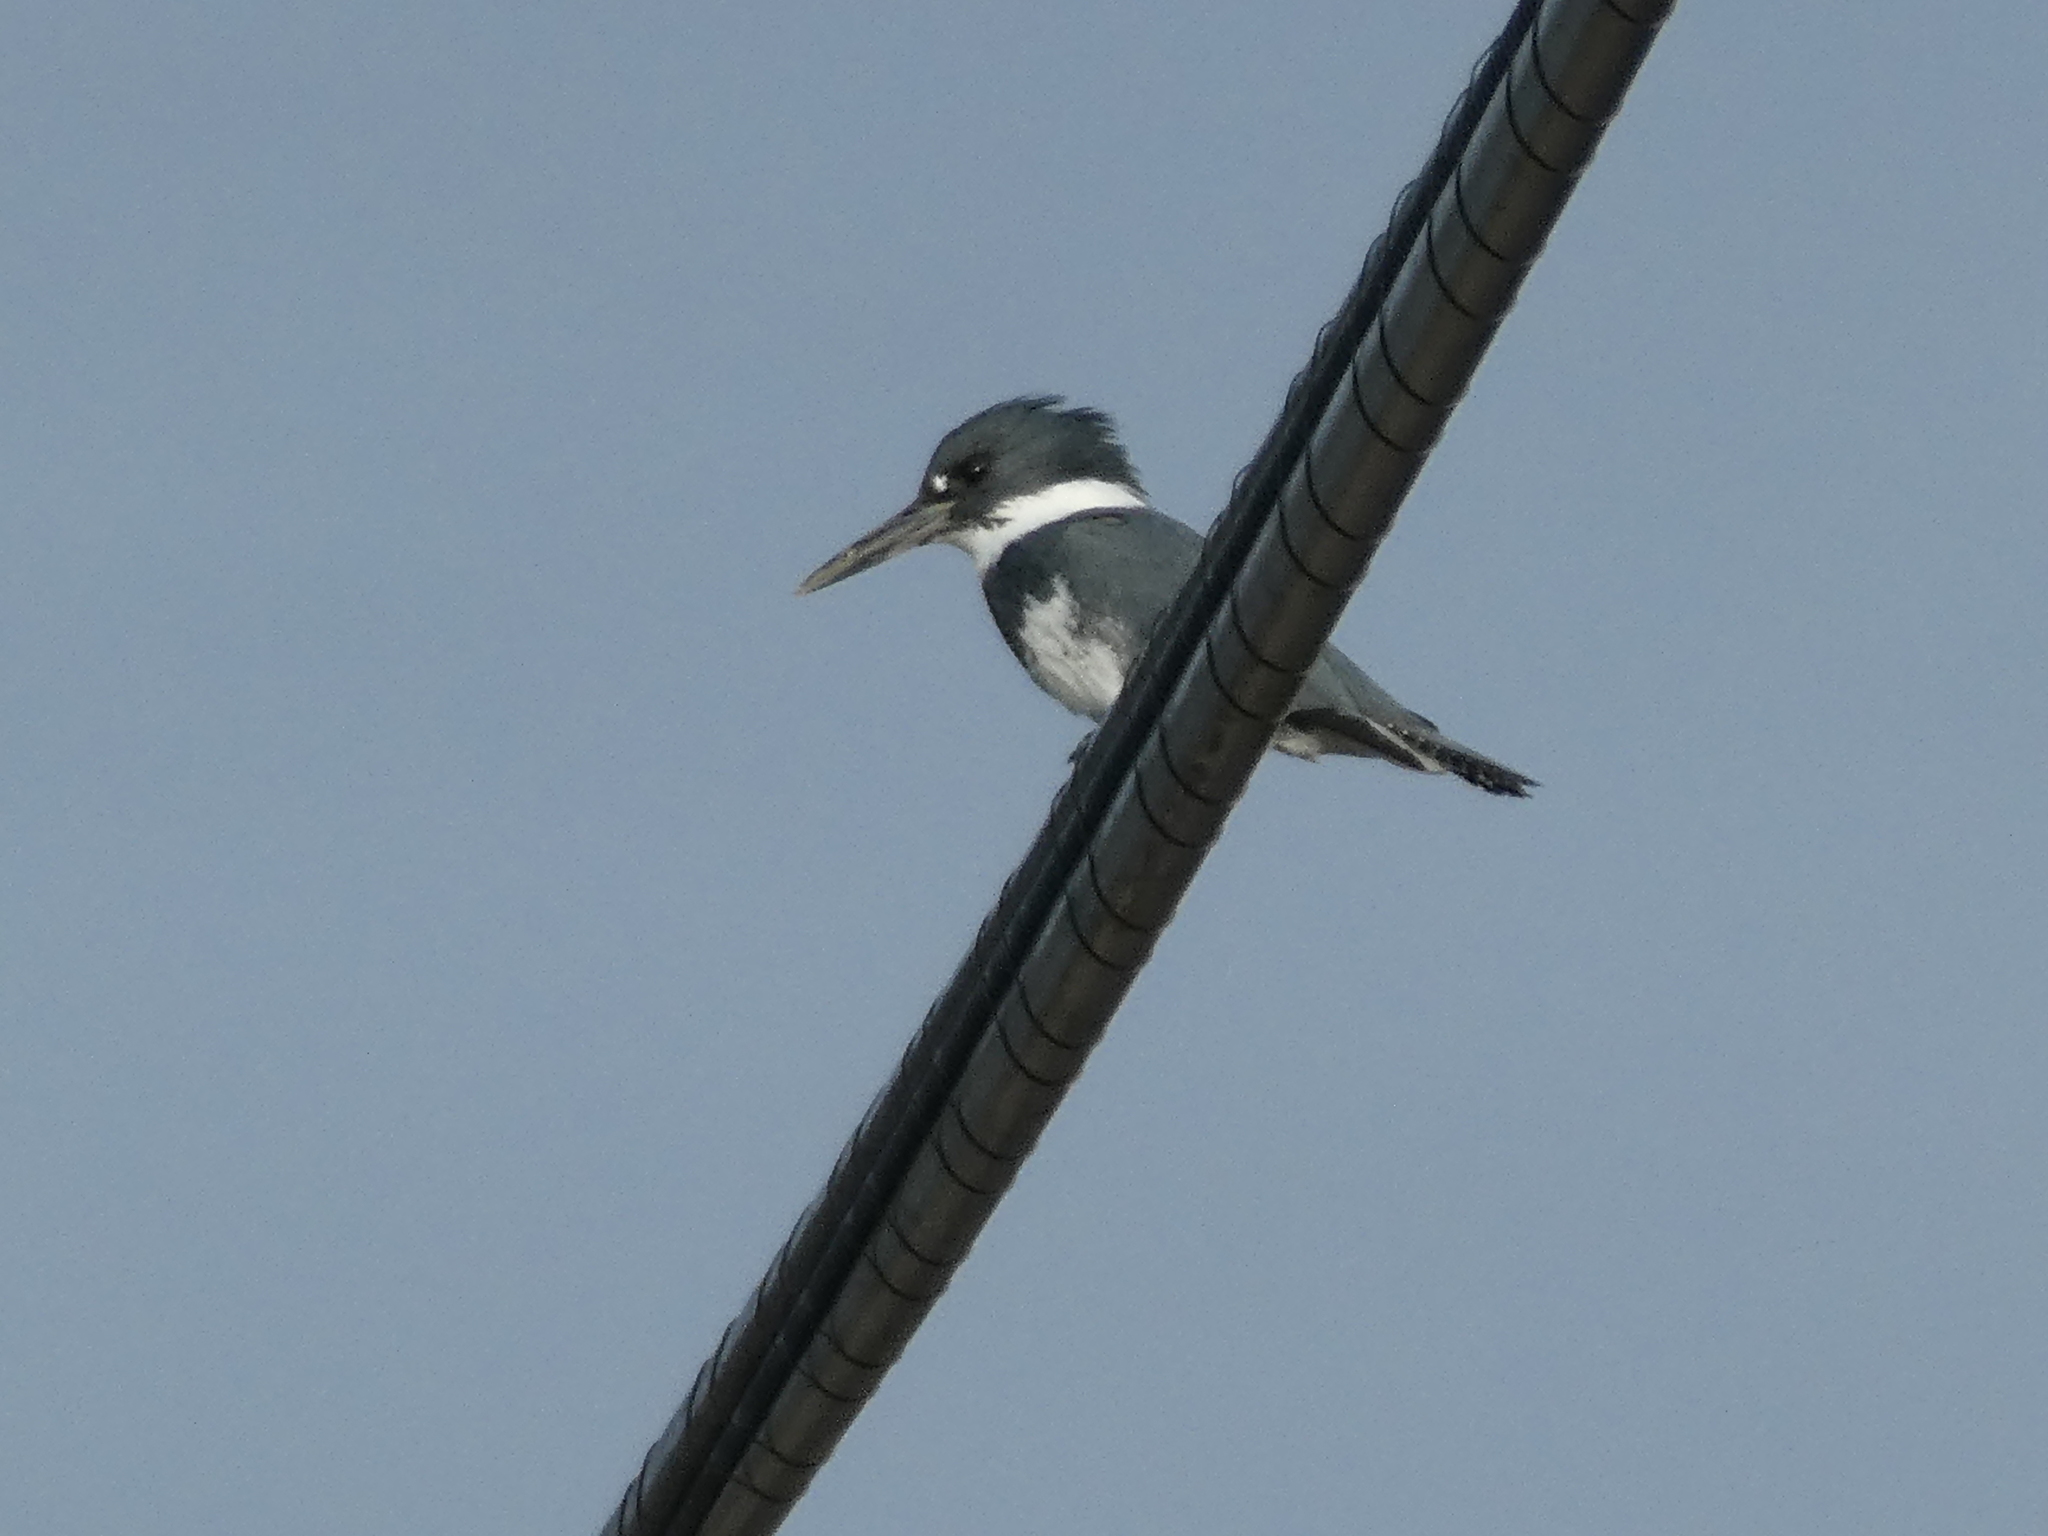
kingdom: Animalia
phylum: Chordata
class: Aves
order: Coraciiformes
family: Alcedinidae
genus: Megaceryle
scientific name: Megaceryle alcyon
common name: Belted kingfisher
